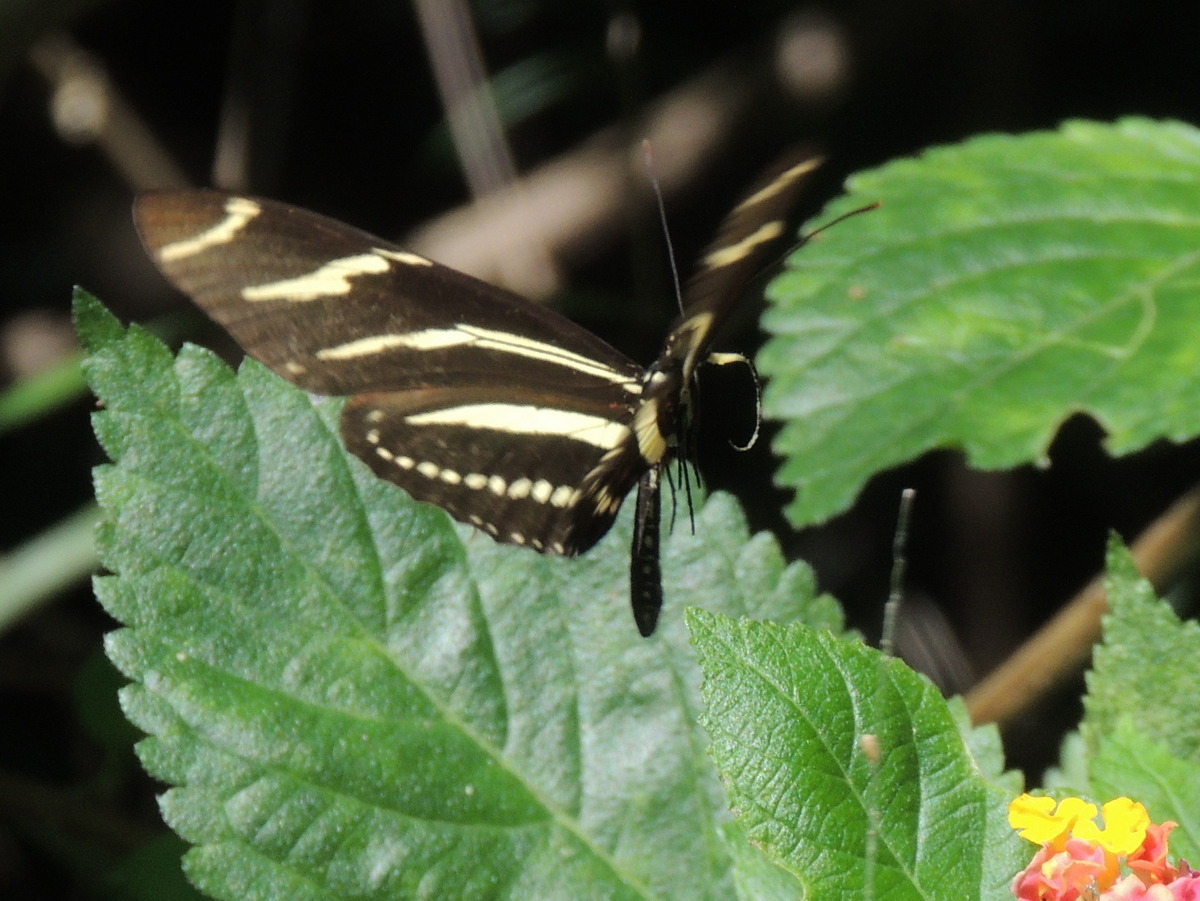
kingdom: Animalia
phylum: Arthropoda
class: Insecta
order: Lepidoptera
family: Nymphalidae
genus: Heliconius
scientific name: Heliconius charithonia
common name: Zebra long wing
